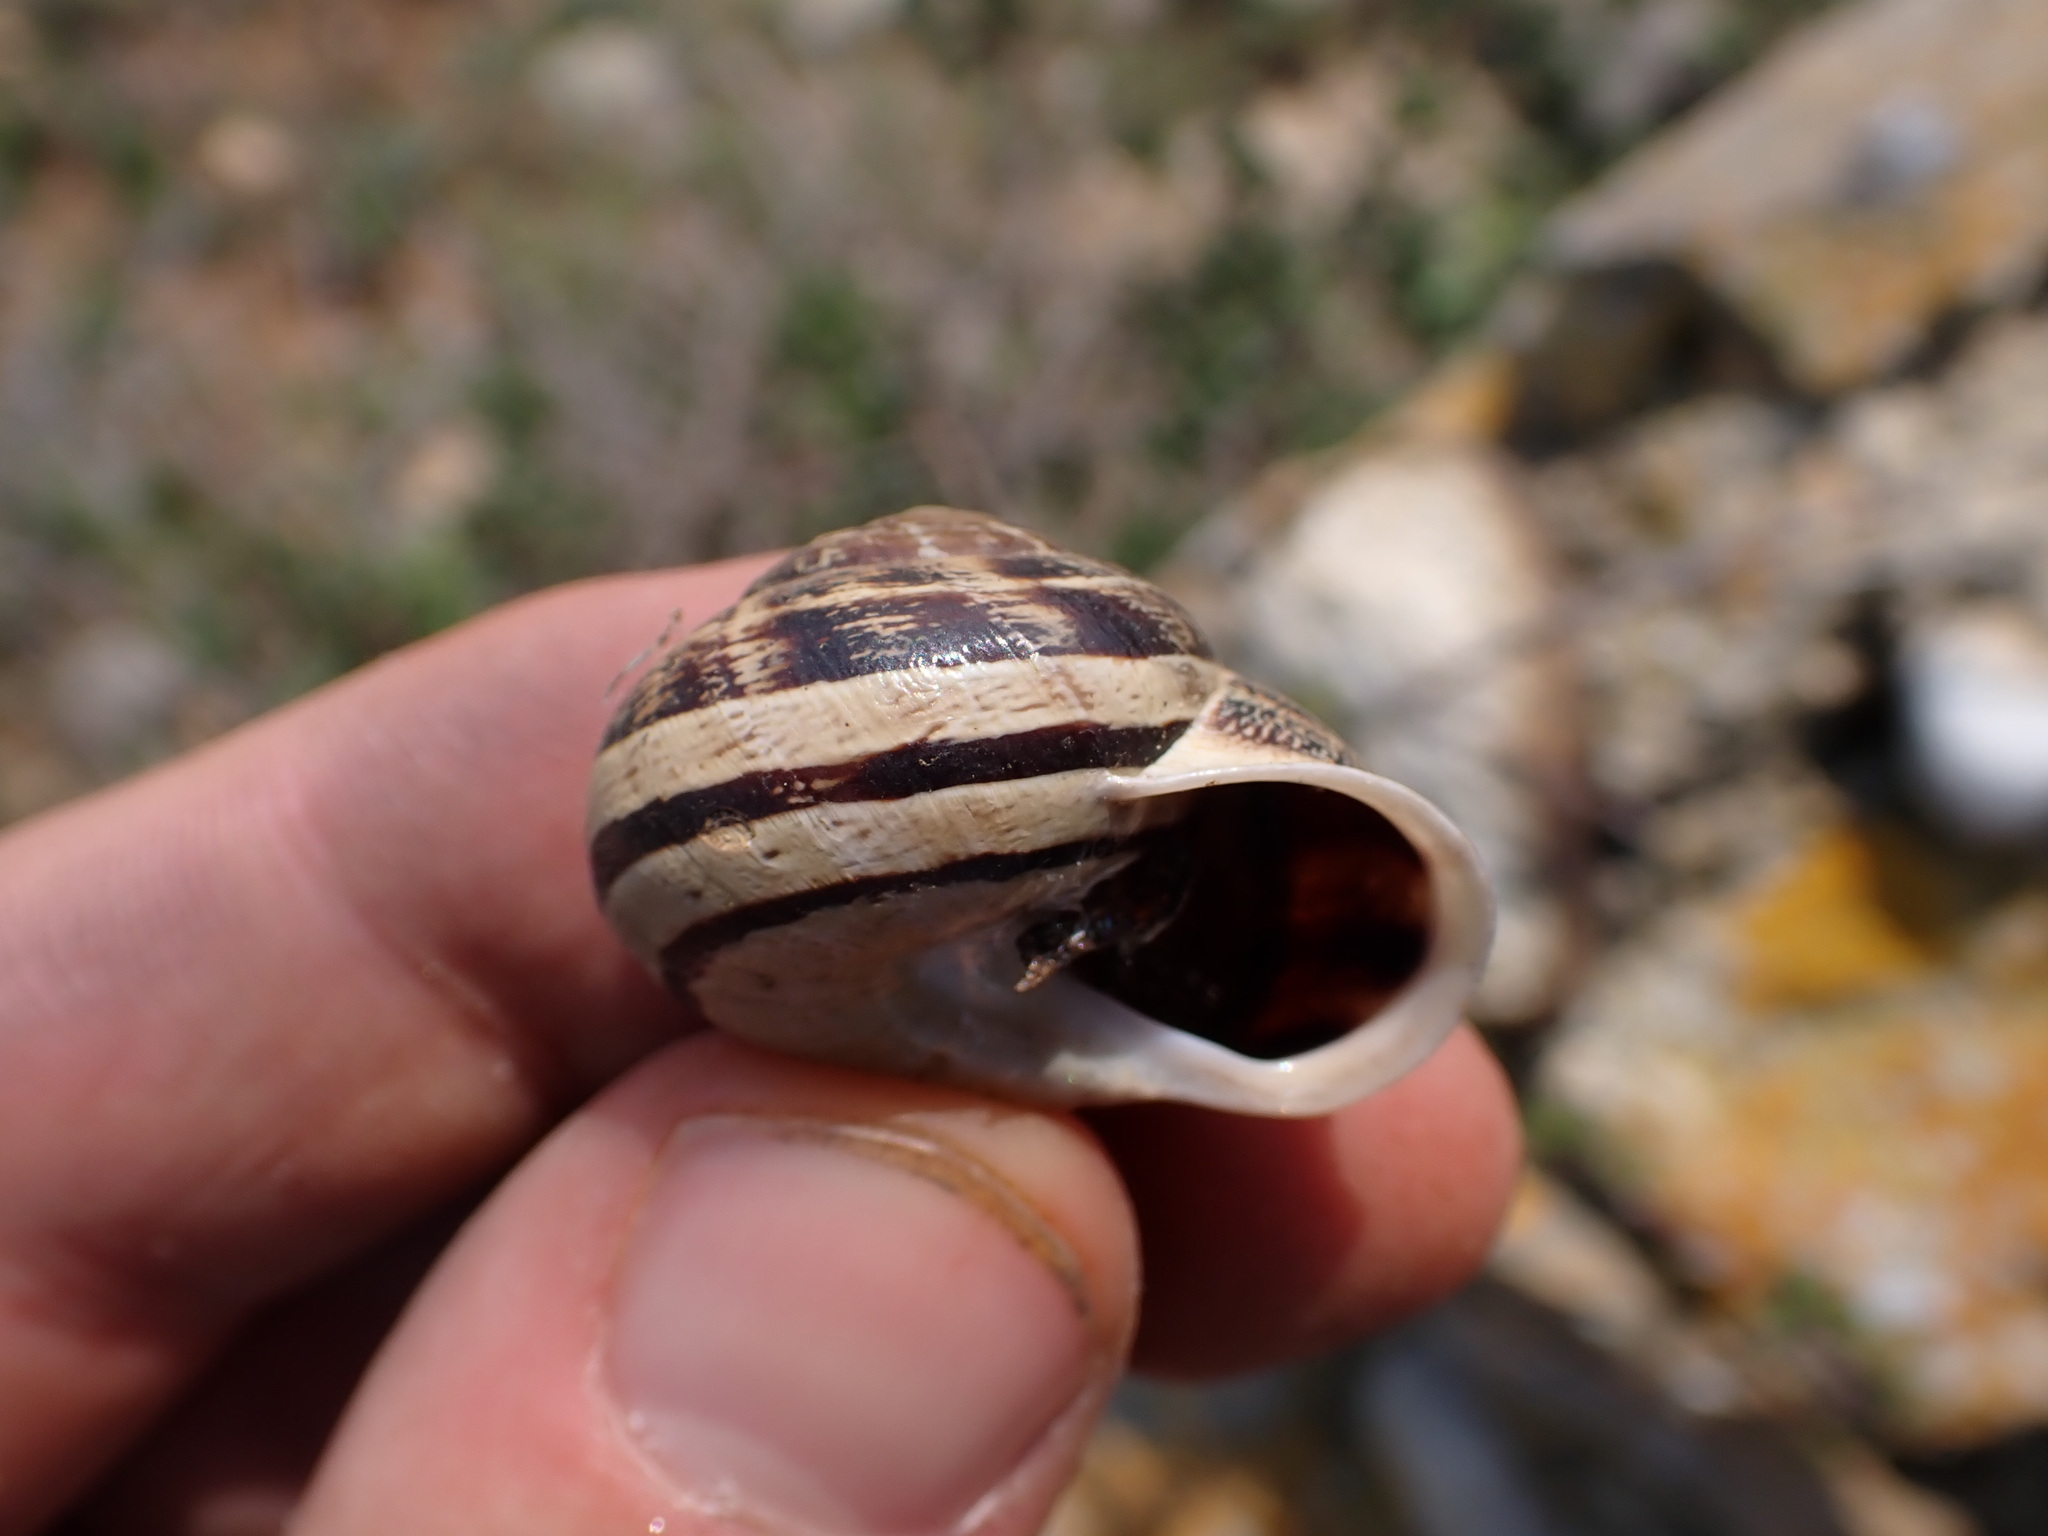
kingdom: Animalia
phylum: Mollusca
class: Gastropoda
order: Stylommatophora
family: Helicidae
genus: Eobania
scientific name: Eobania vermiculata
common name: Chocolateband snail
